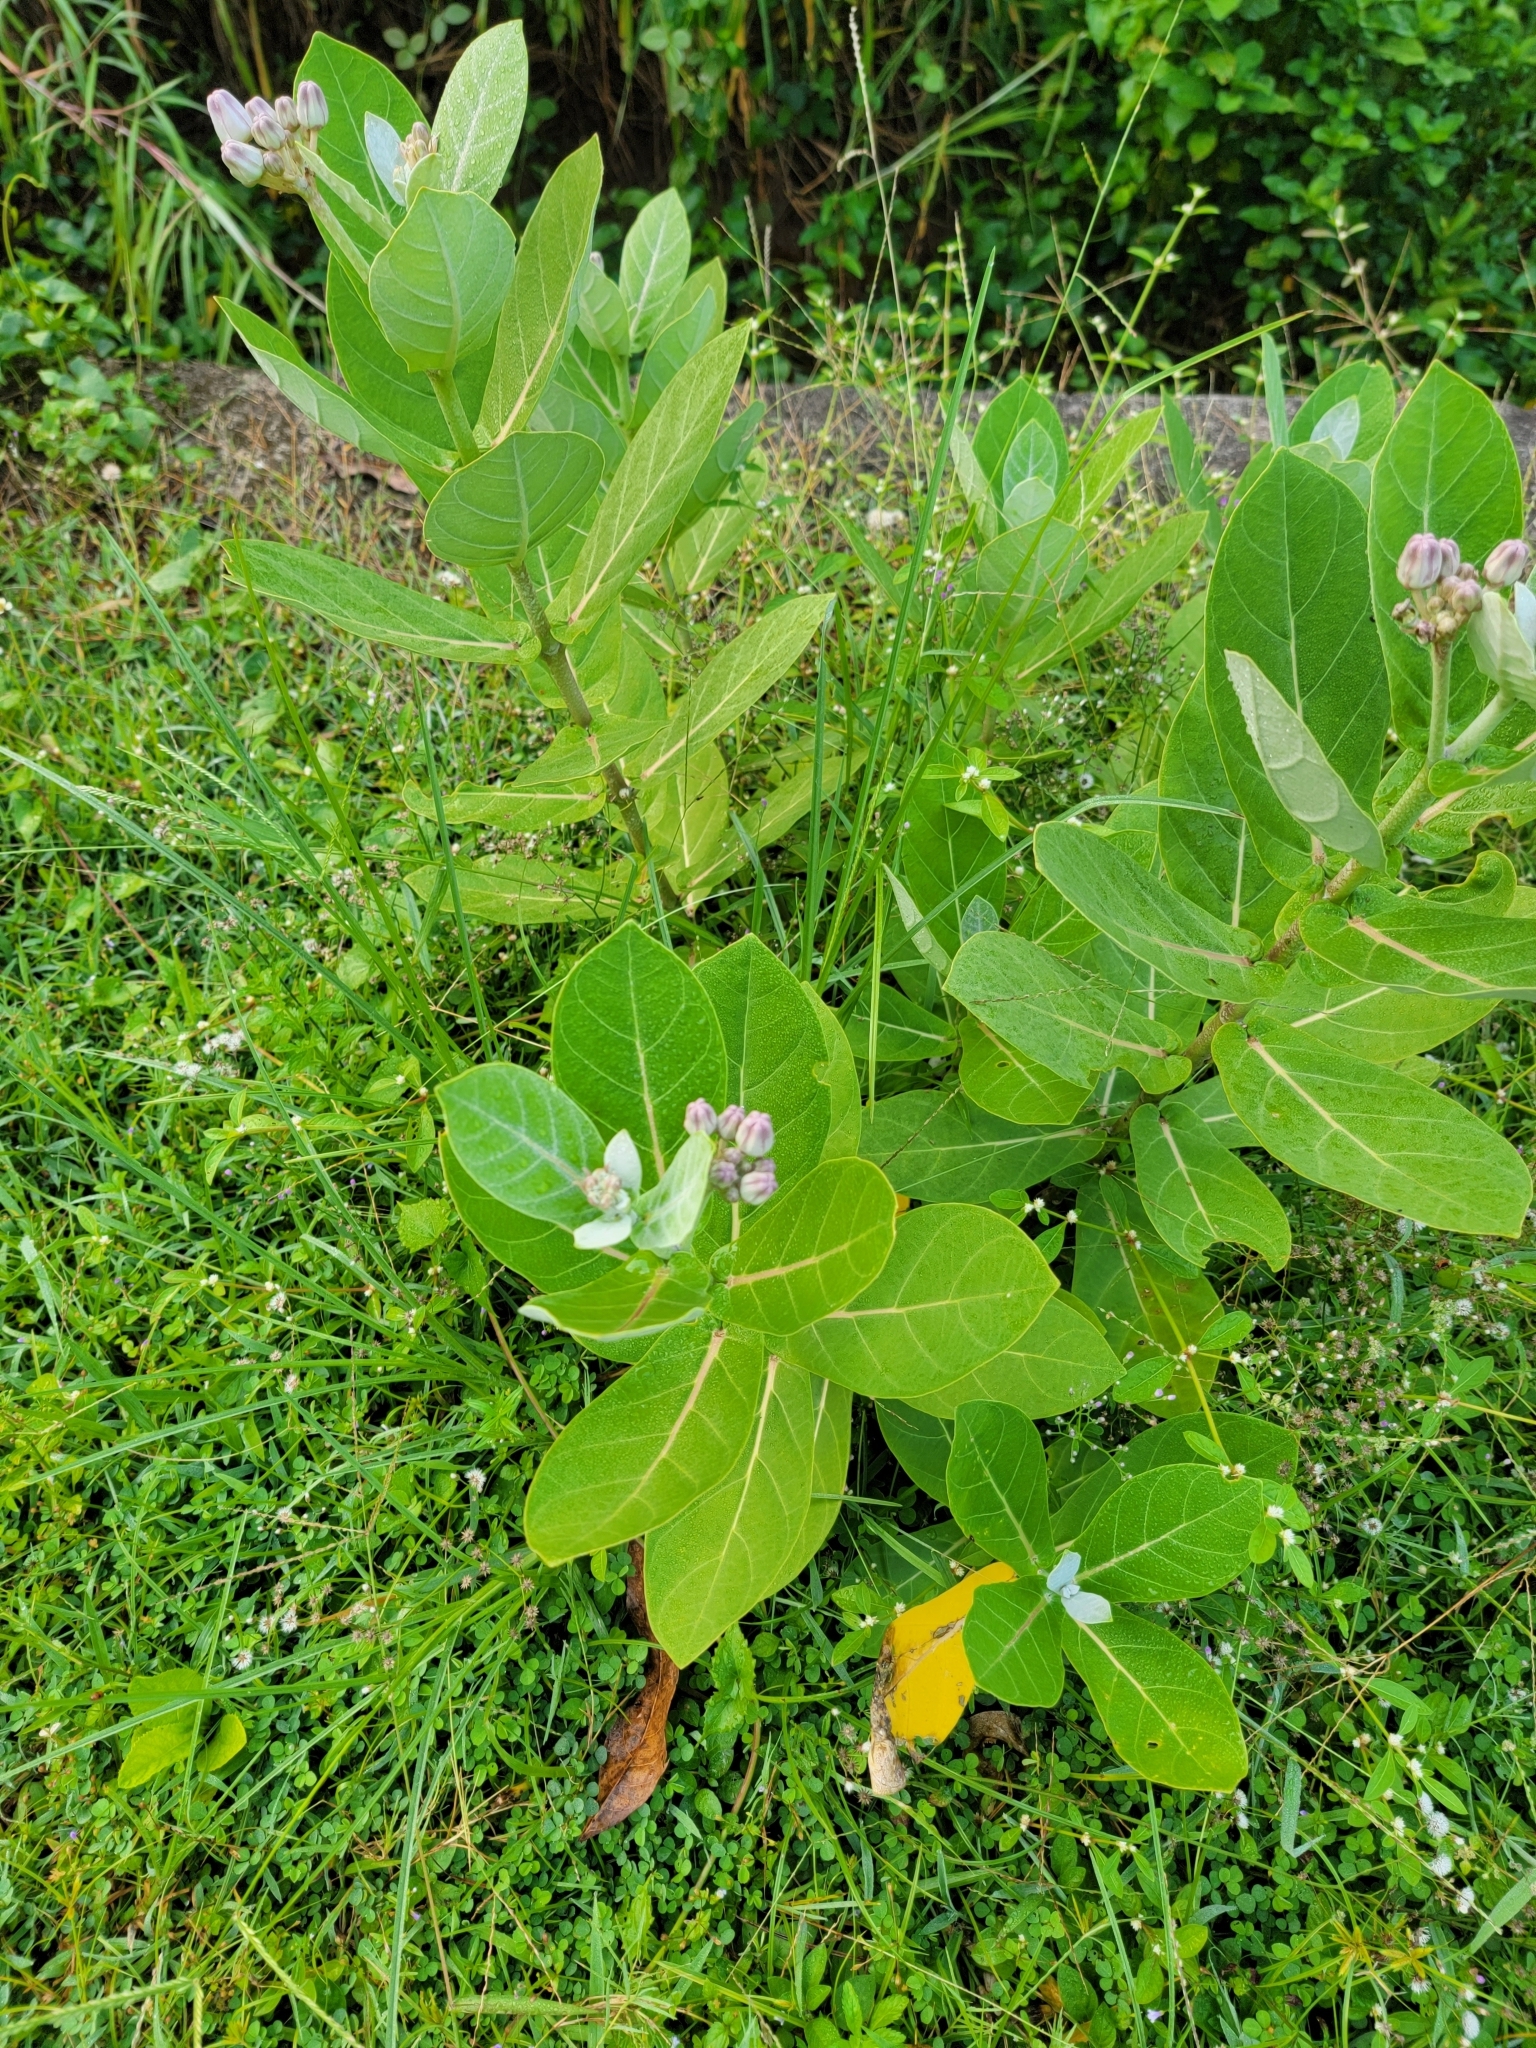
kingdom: Plantae
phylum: Tracheophyta
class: Magnoliopsida
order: Gentianales
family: Apocynaceae
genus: Calotropis
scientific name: Calotropis gigantea
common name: Crown flower
